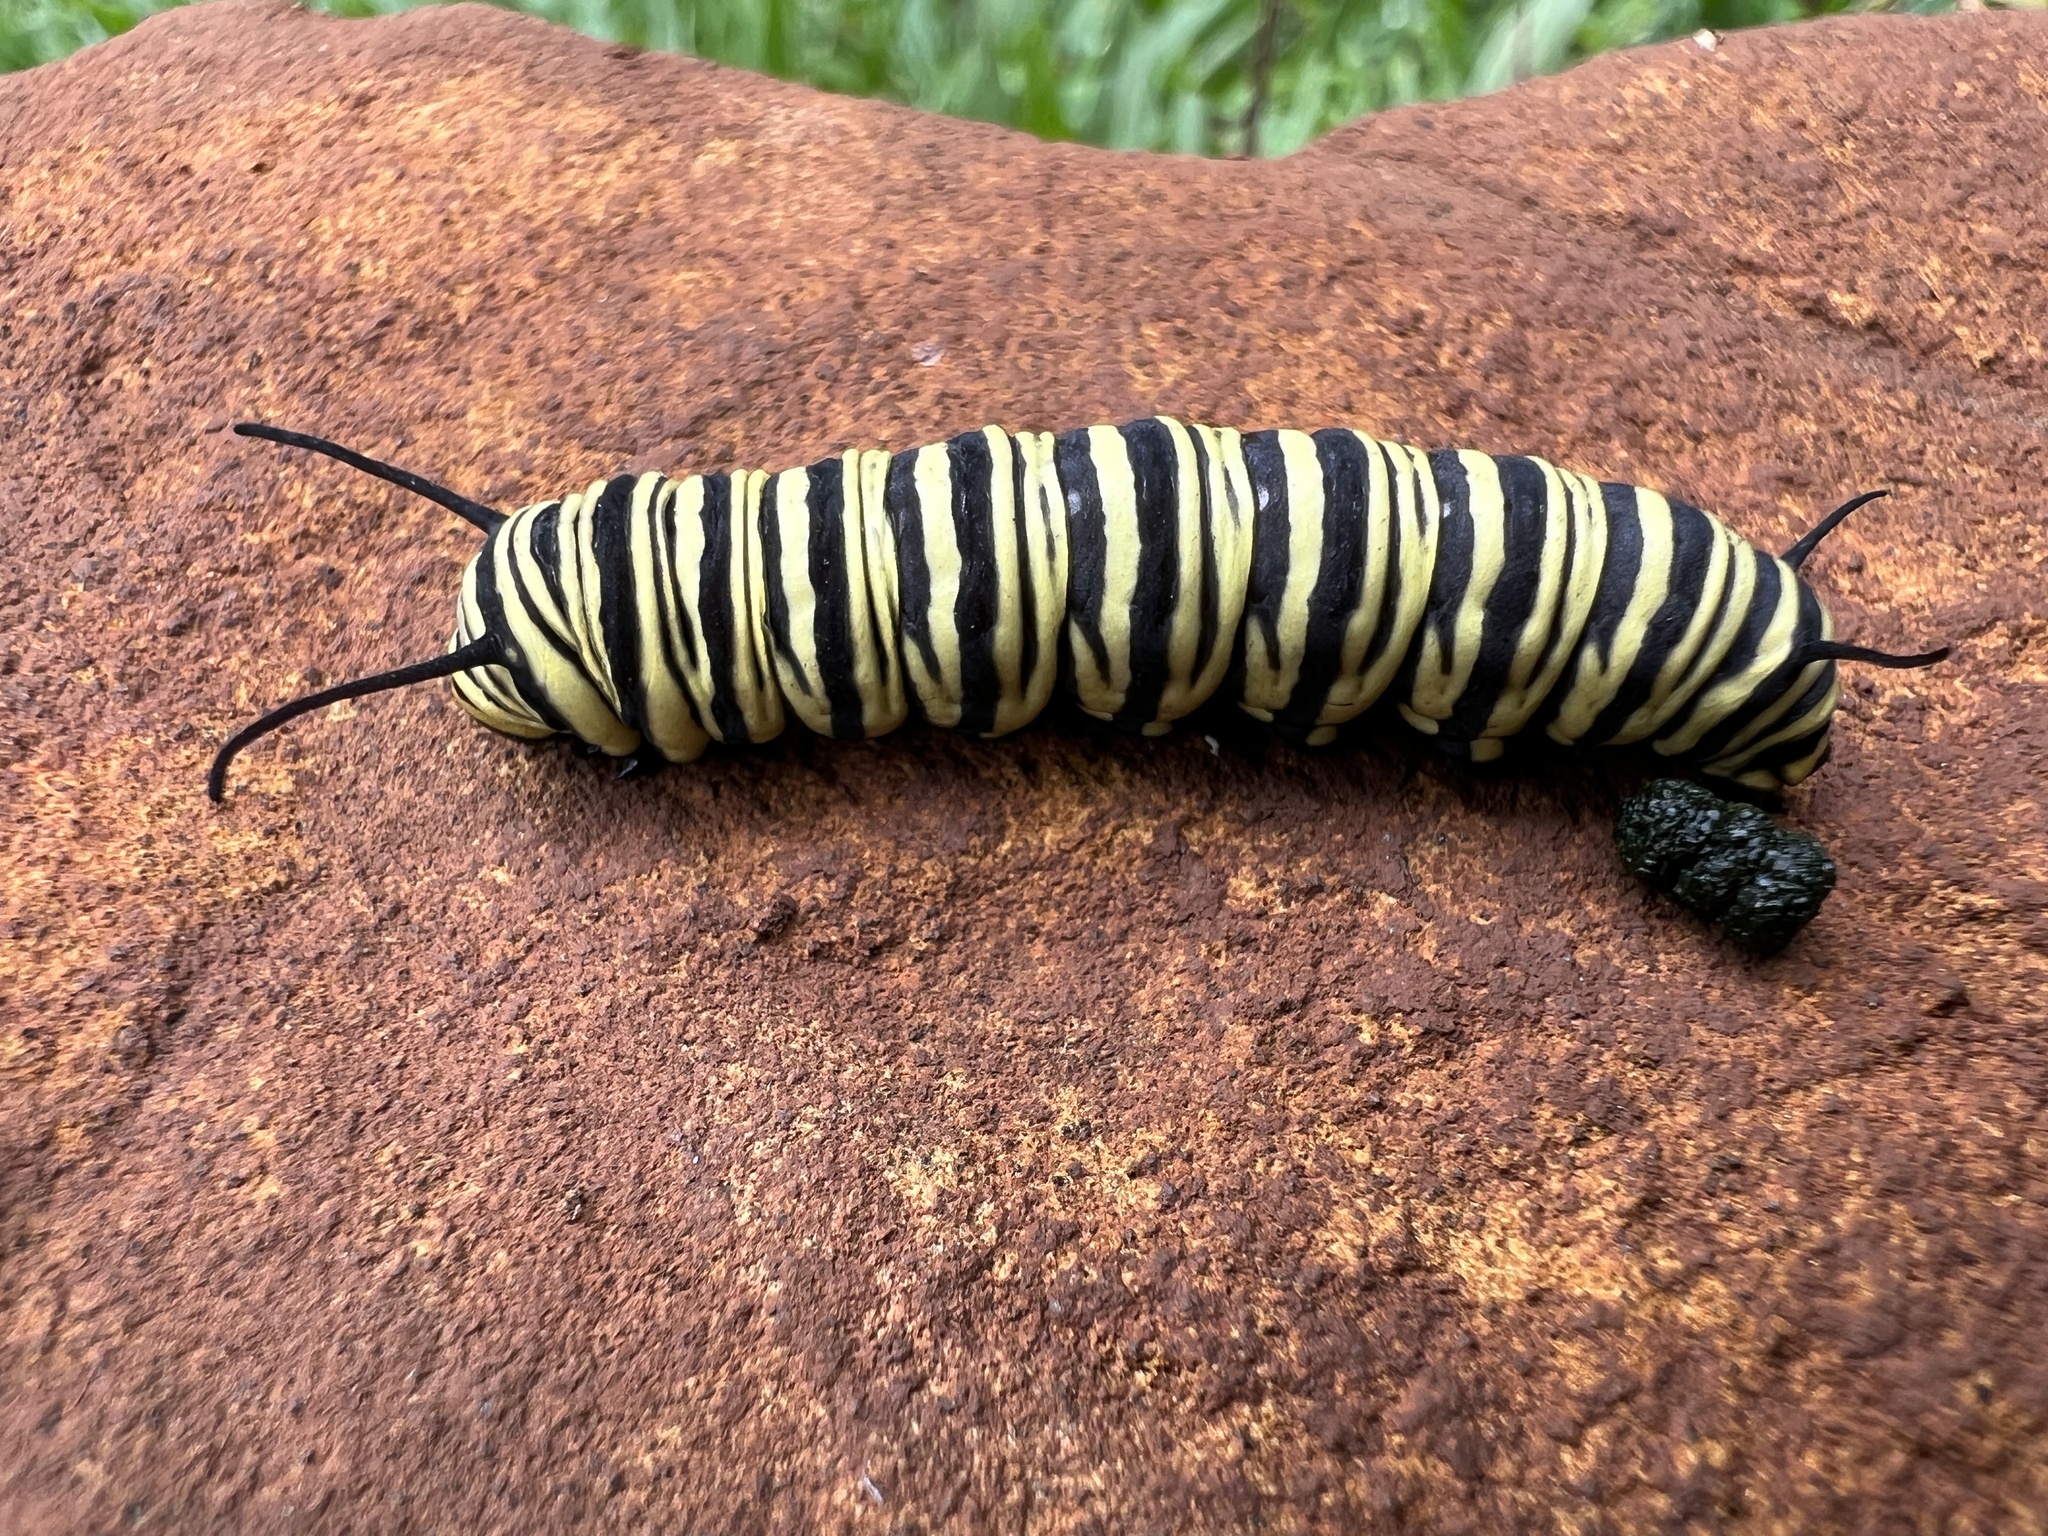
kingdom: Animalia
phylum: Arthropoda
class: Insecta
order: Lepidoptera
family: Nymphalidae
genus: Danaus
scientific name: Danaus erippus
